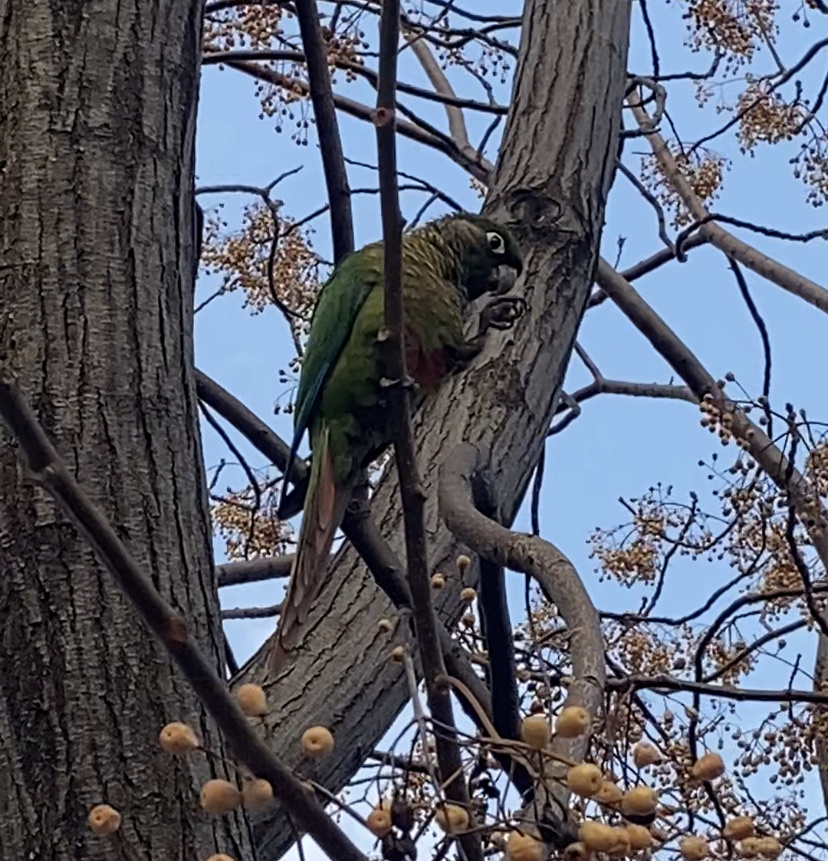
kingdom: Animalia
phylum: Chordata
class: Aves
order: Psittaciformes
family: Psittacidae
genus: Pyrrhura
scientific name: Pyrrhura frontalis
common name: Maroon-bellied parakeet
